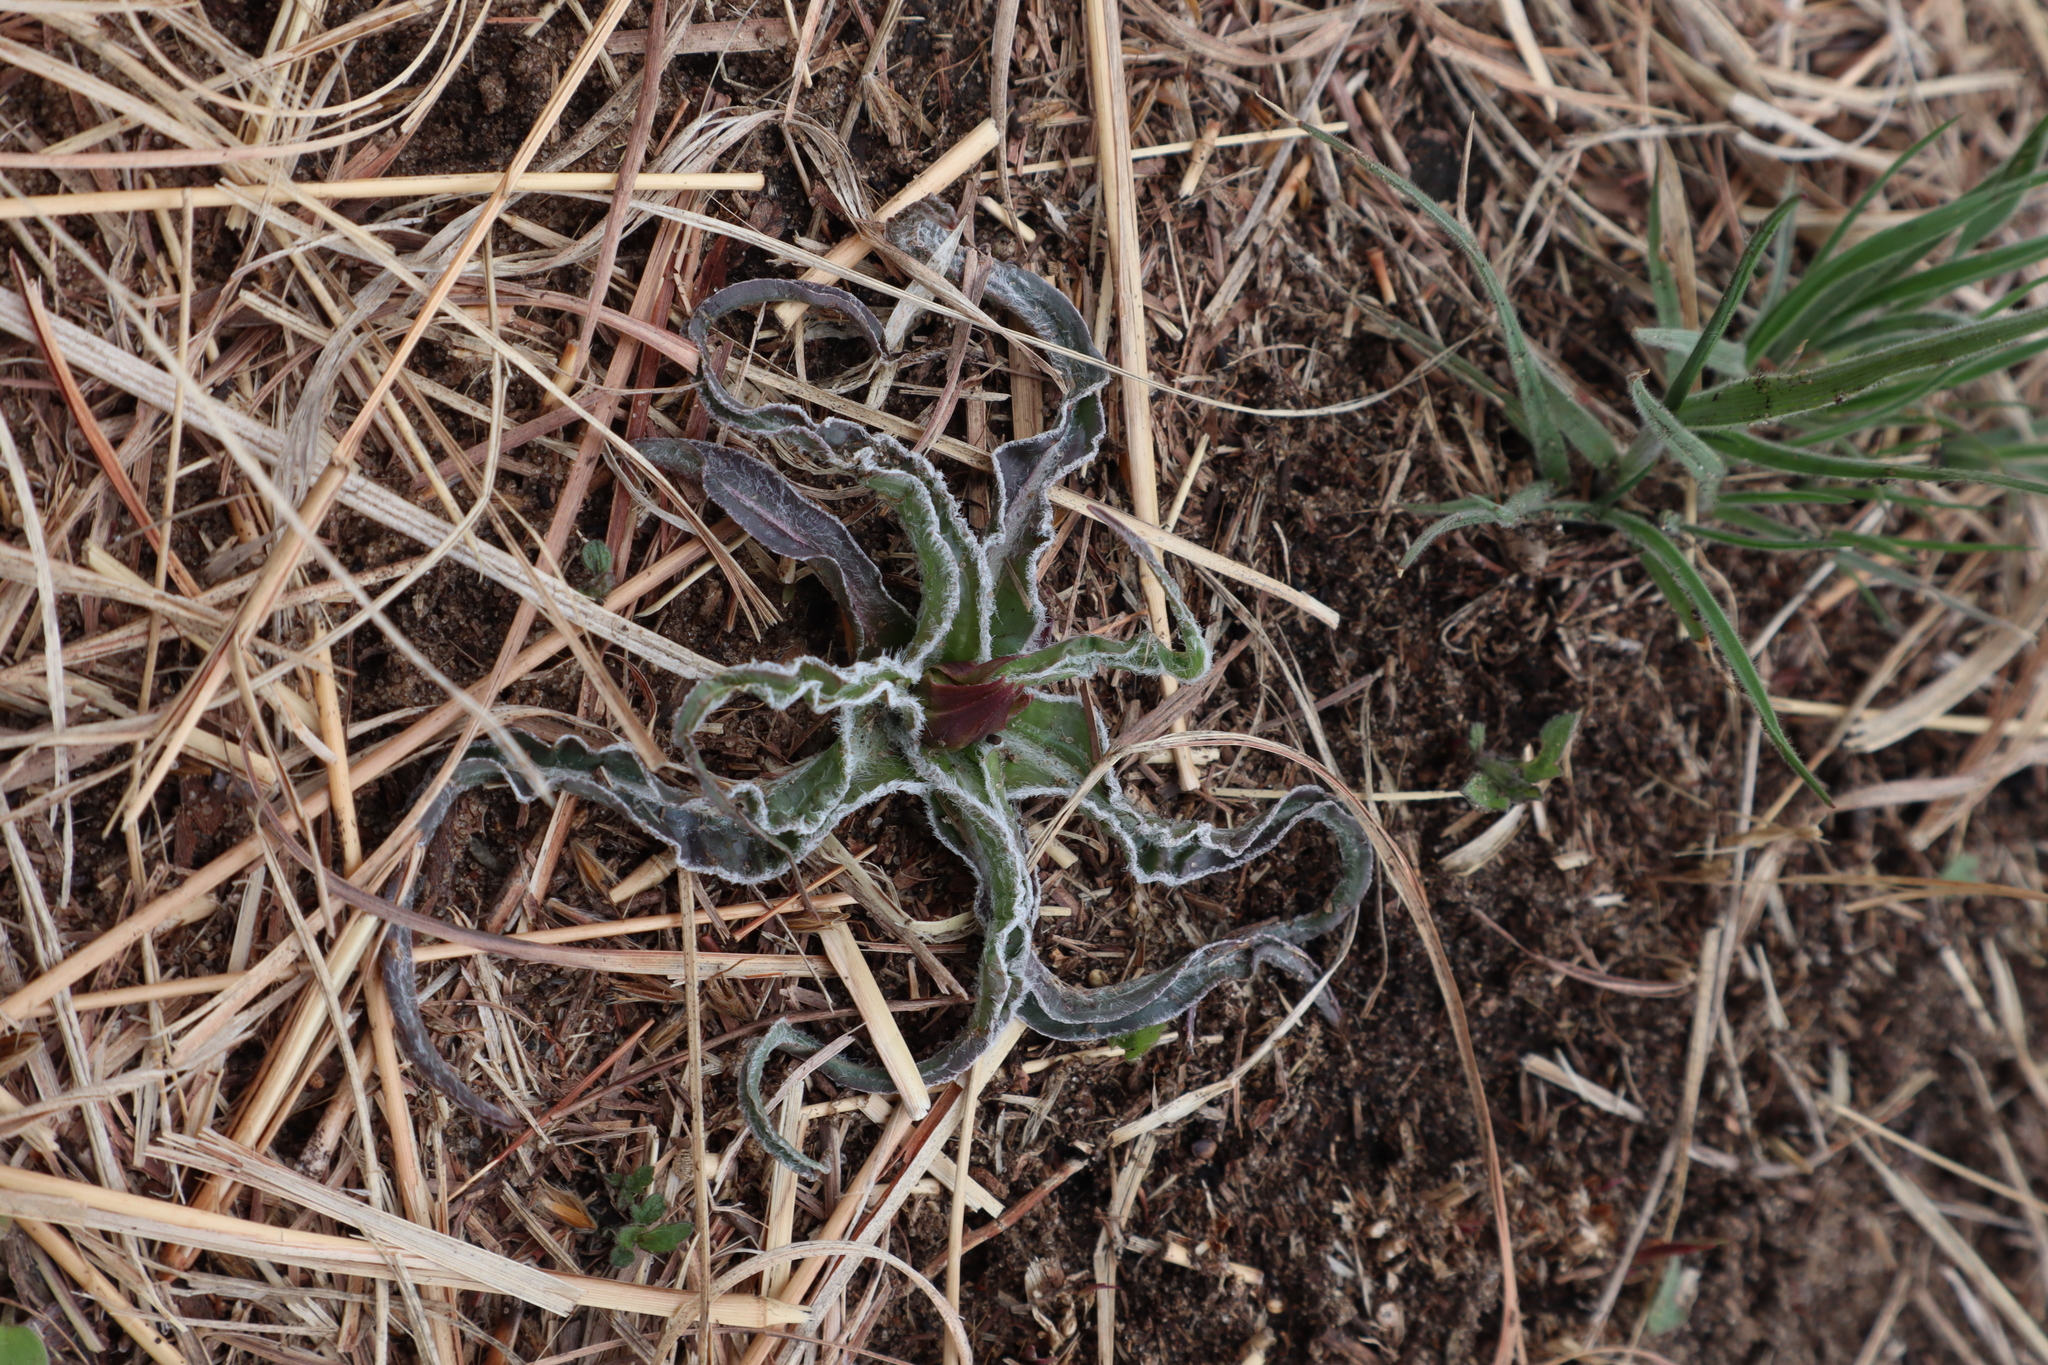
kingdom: Plantae
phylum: Tracheophyta
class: Magnoliopsida
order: Asterales
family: Asteraceae
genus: Microseris
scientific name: Microseris cuspidata
